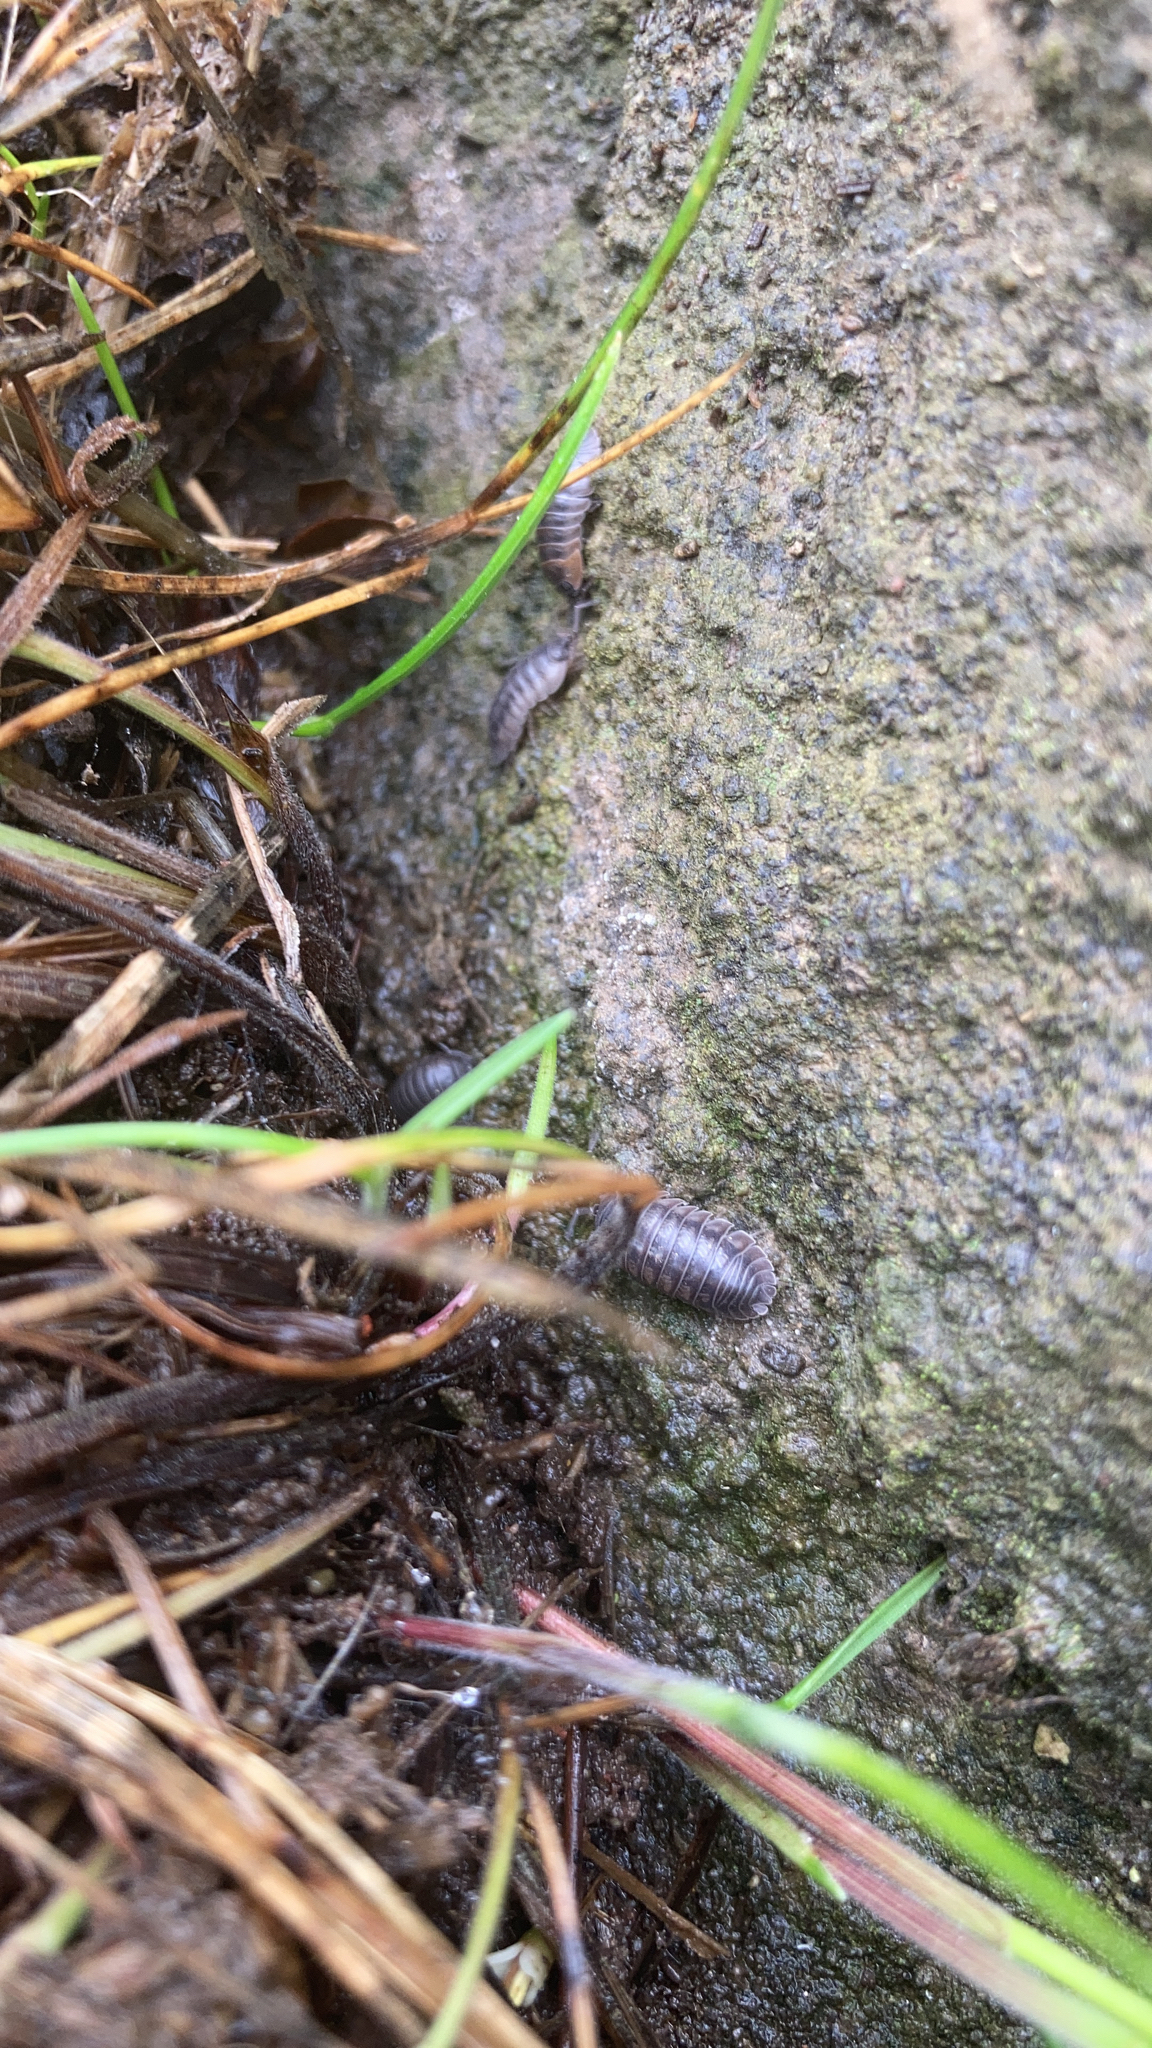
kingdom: Animalia
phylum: Arthropoda
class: Malacostraca
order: Isopoda
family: Armadillidiidae
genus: Armadillidium
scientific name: Armadillidium nasatum
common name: Isopod
